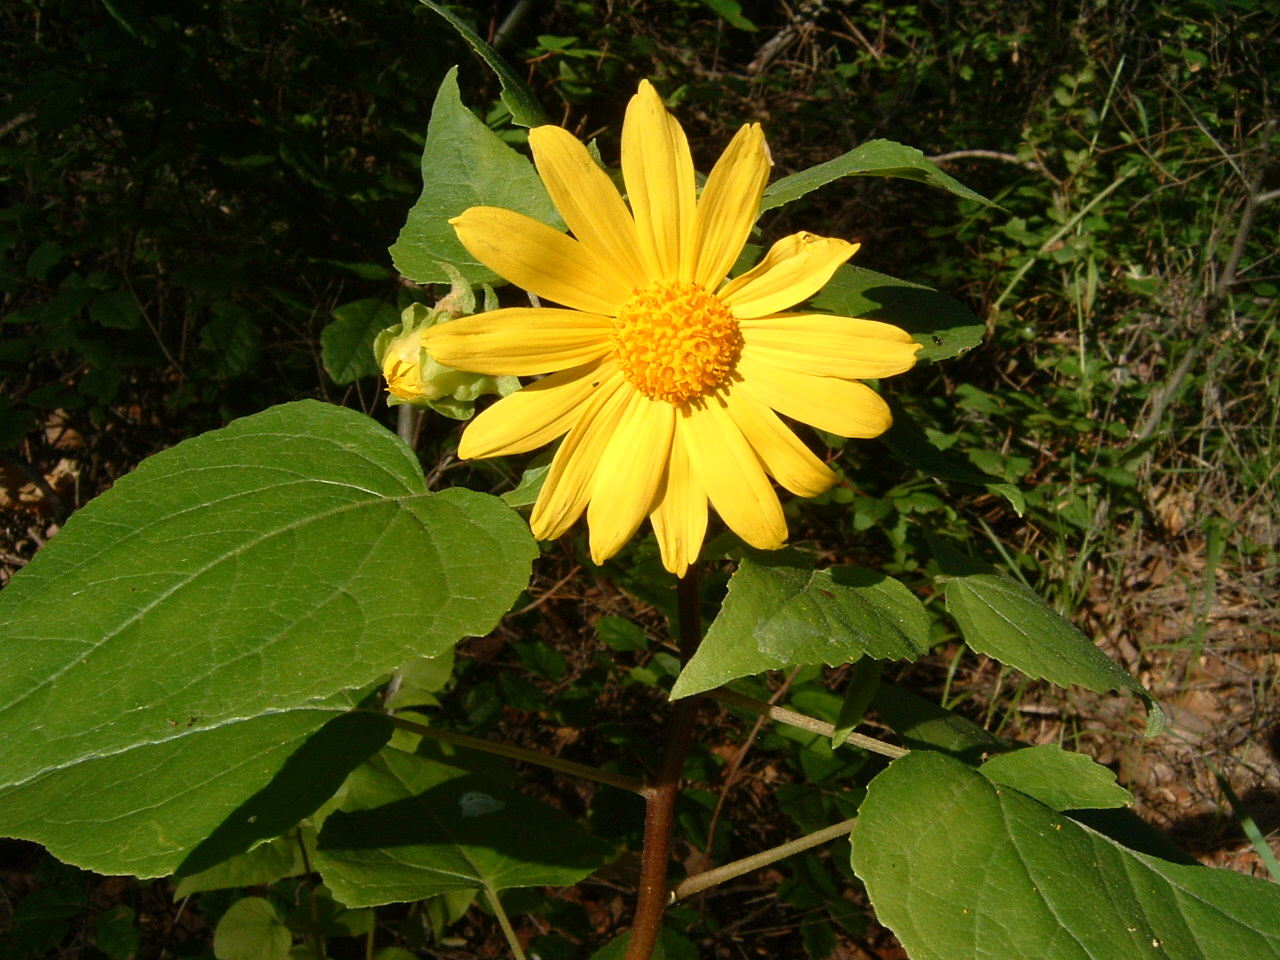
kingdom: Plantae
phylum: Tracheophyta
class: Magnoliopsida
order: Asterales
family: Asteraceae
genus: Venegasia
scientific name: Venegasia carpesioides
